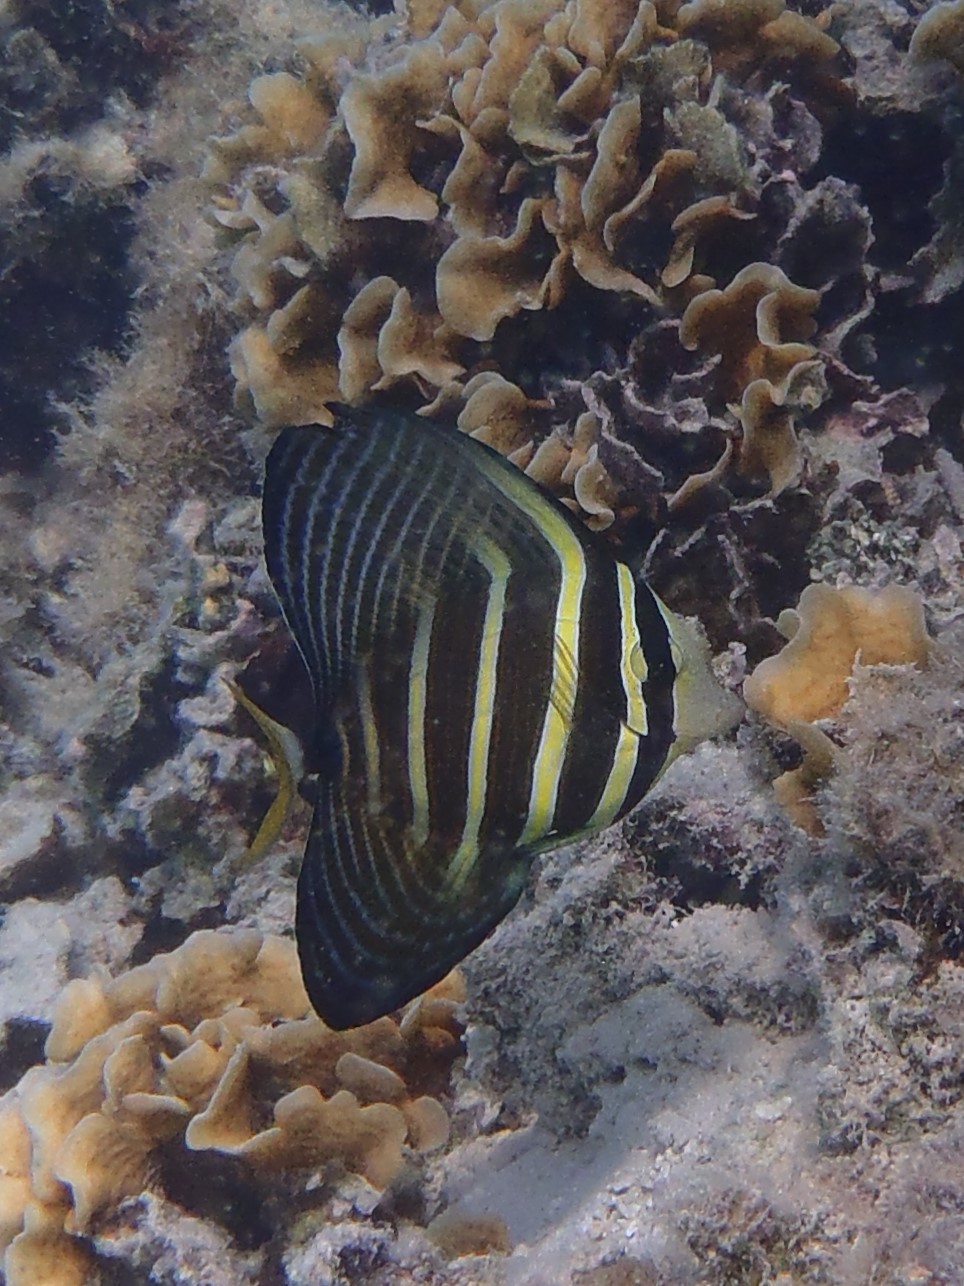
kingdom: Animalia
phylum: Chordata
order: Perciformes
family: Acanthuridae
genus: Zebrasoma
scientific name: Zebrasoma veliferum
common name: Sailfin surgeonfish
